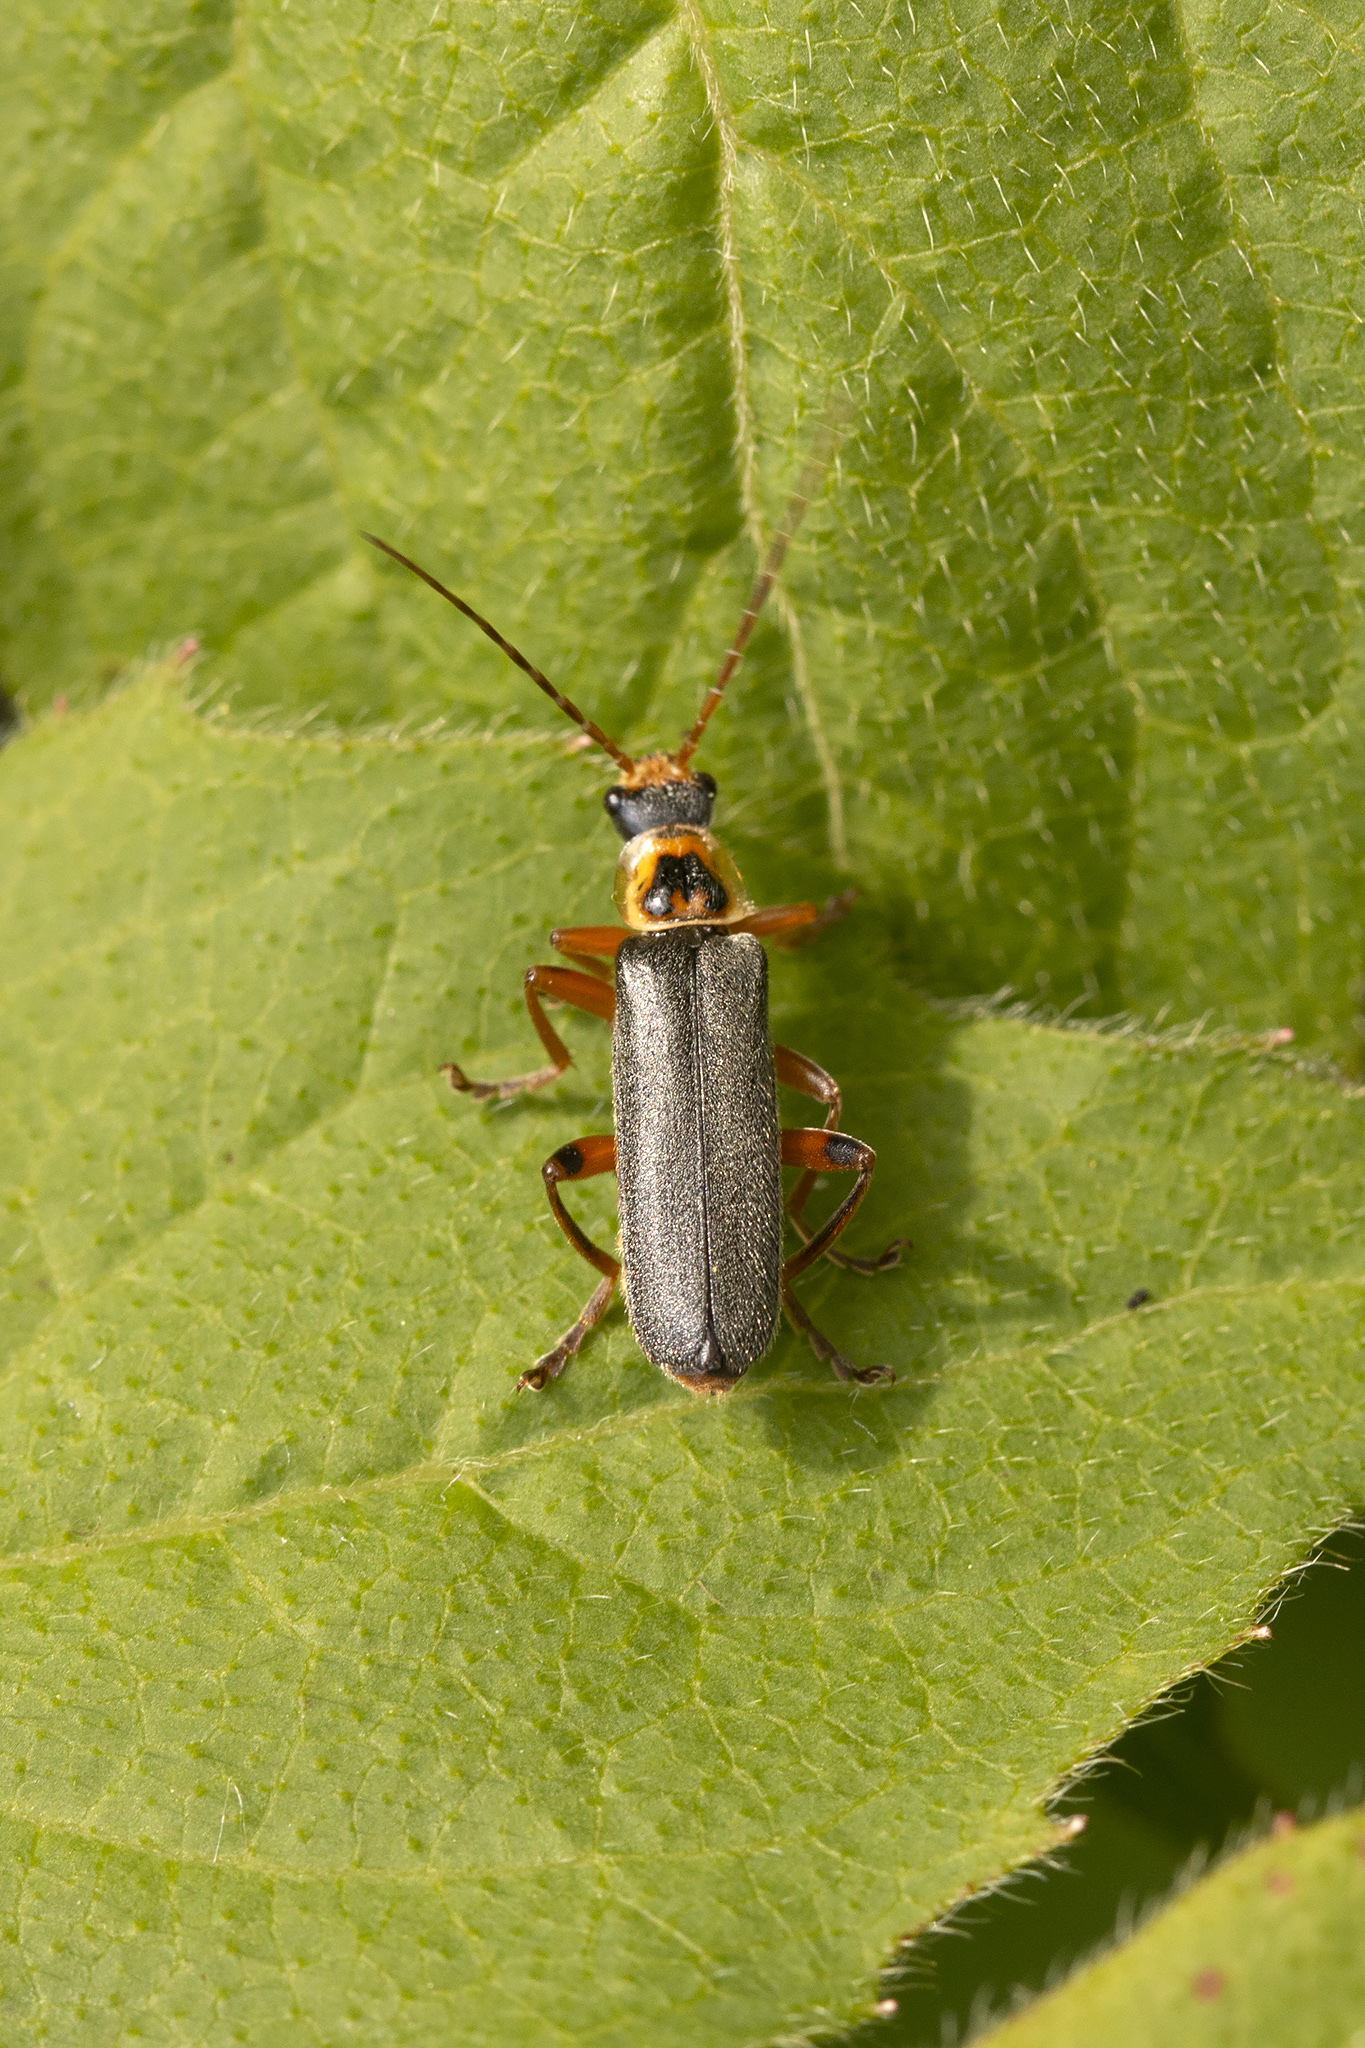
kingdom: Animalia
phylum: Arthropoda
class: Insecta
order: Coleoptera
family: Cantharidae
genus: Cantharis
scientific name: Cantharis nigricans
